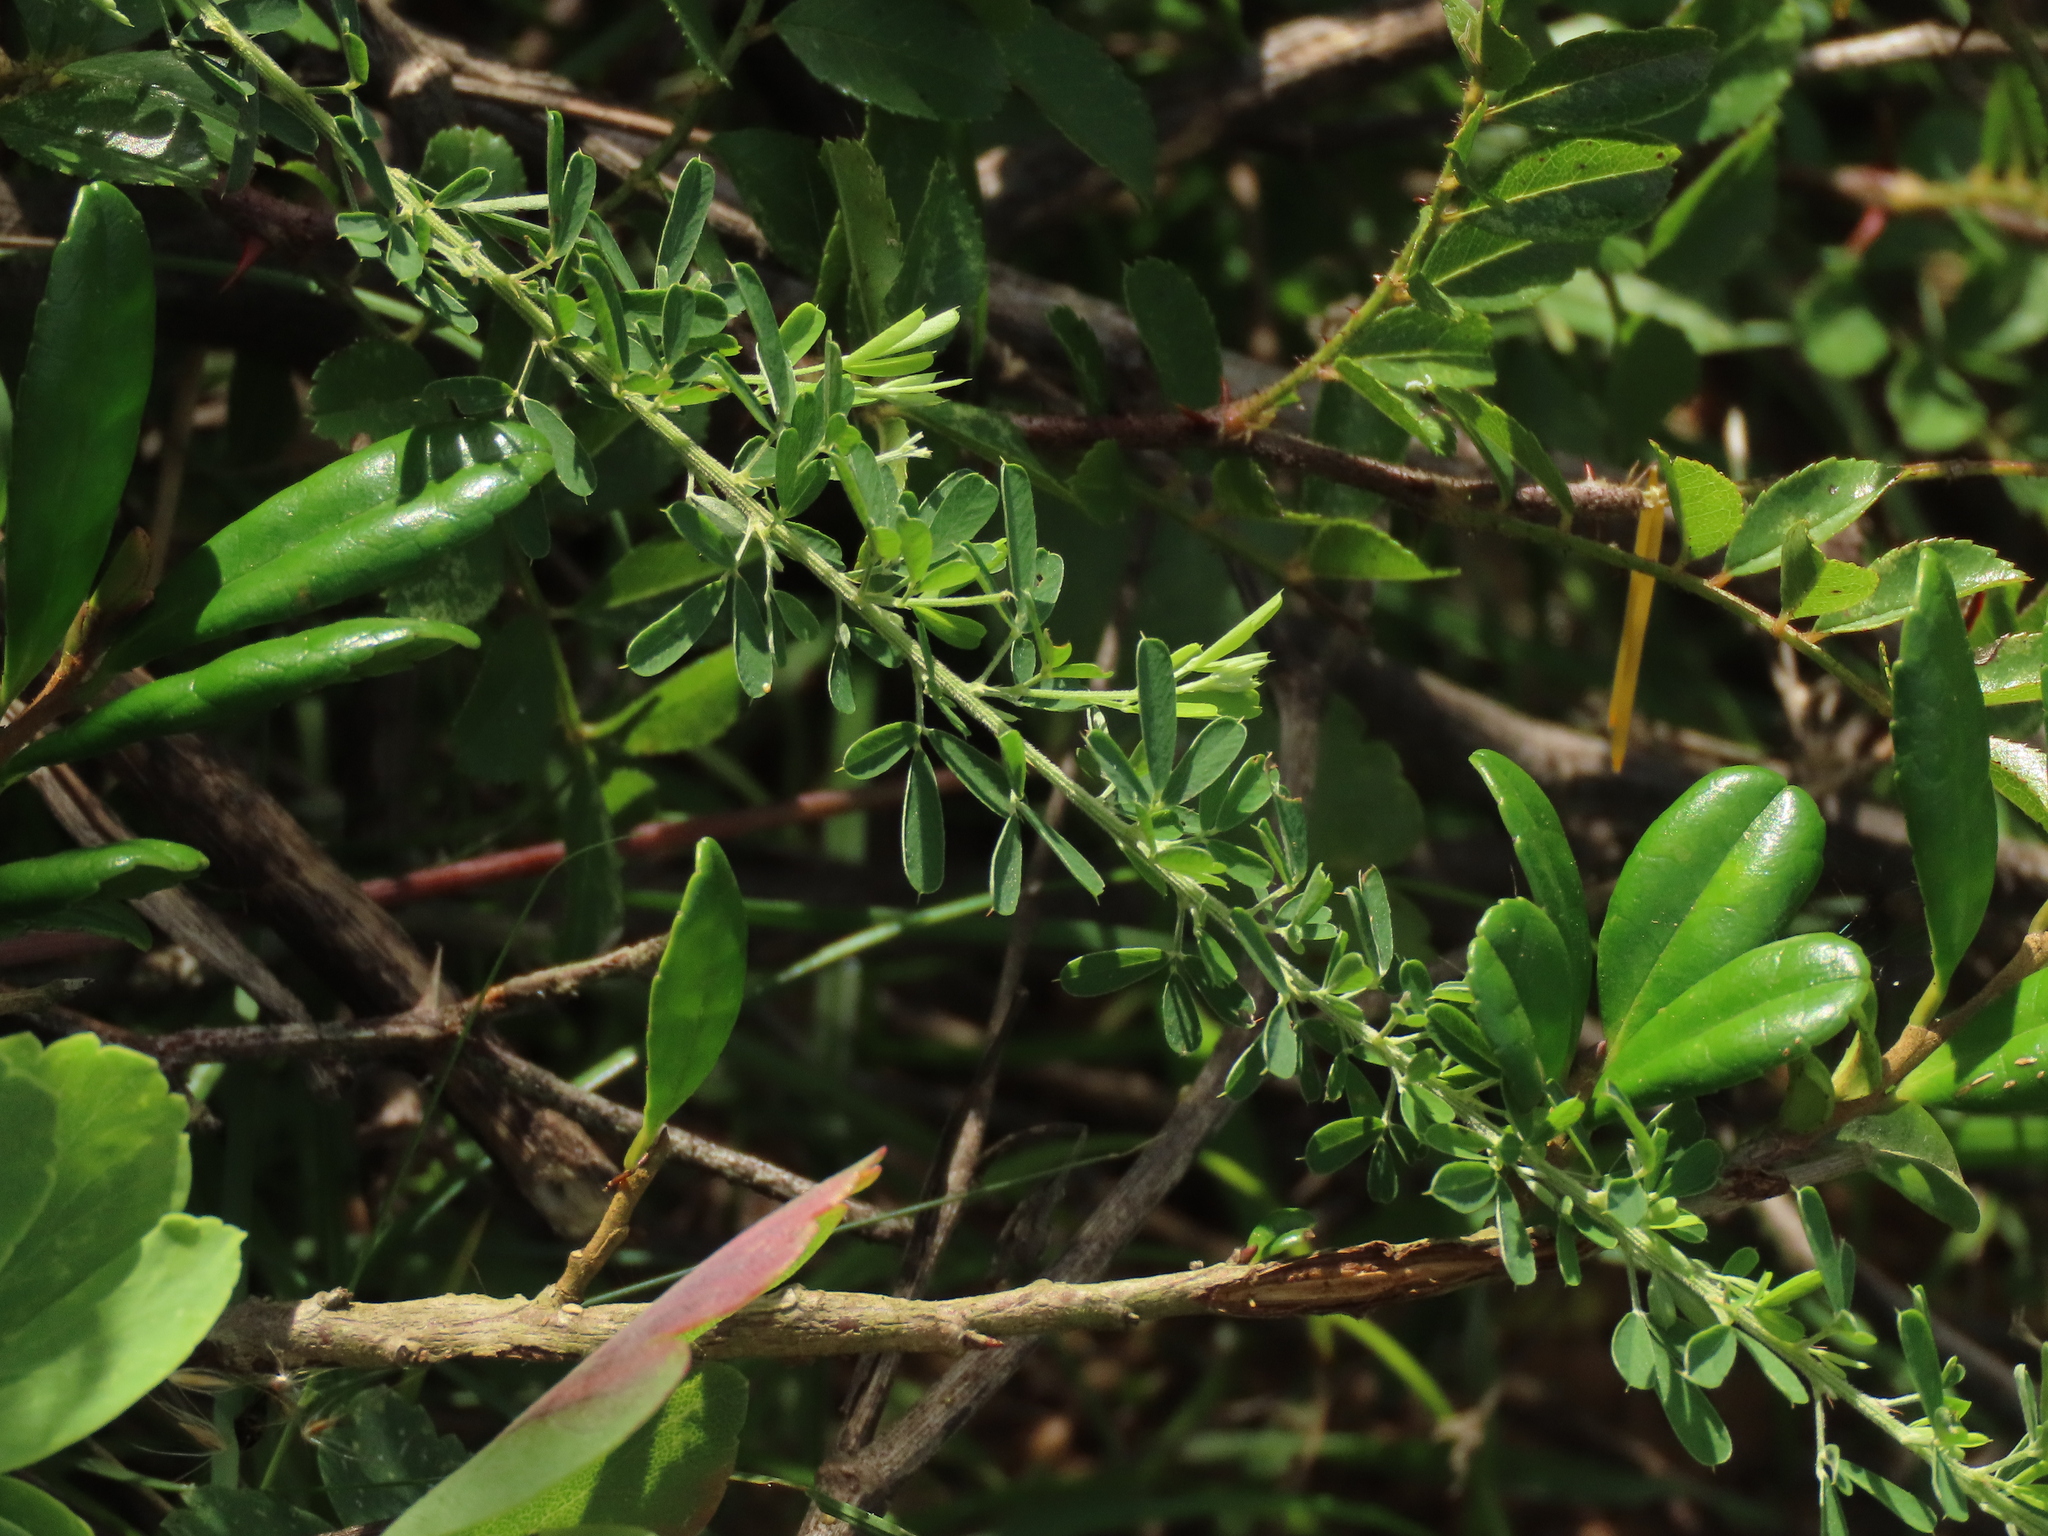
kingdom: Plantae
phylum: Tracheophyta
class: Magnoliopsida
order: Fabales
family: Fabaceae
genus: Lespedeza
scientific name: Lespedeza cuneata
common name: Chinese bush-clover
